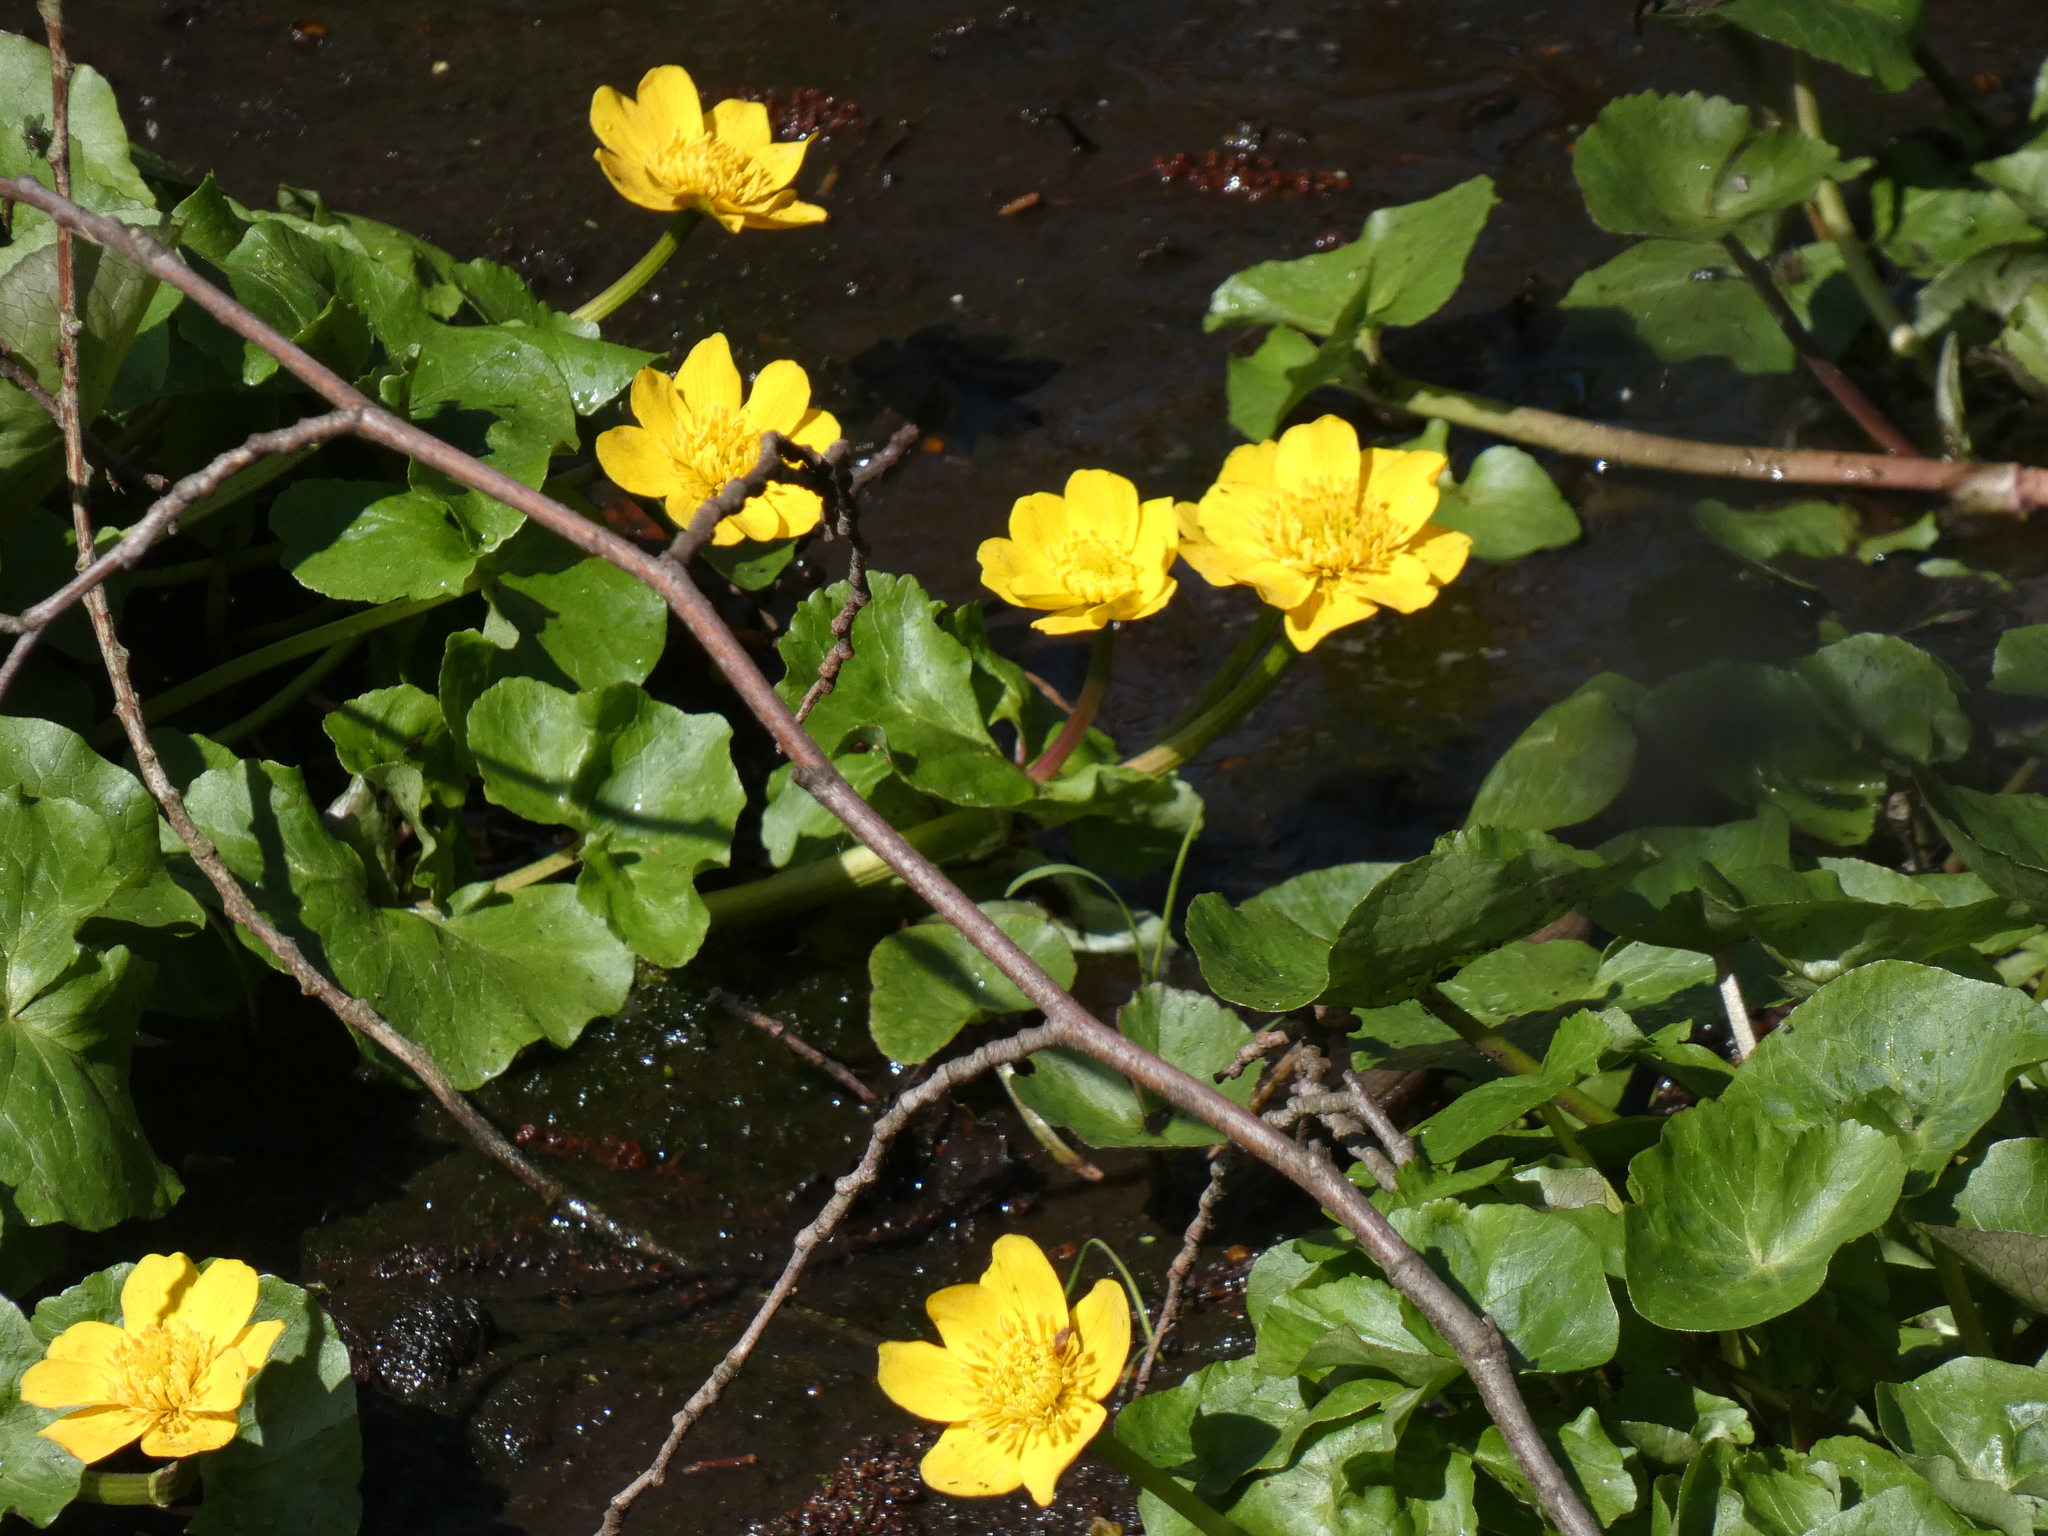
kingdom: Plantae
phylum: Tracheophyta
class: Magnoliopsida
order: Ranunculales
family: Ranunculaceae
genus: Caltha
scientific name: Caltha palustris
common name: Marsh marigold
